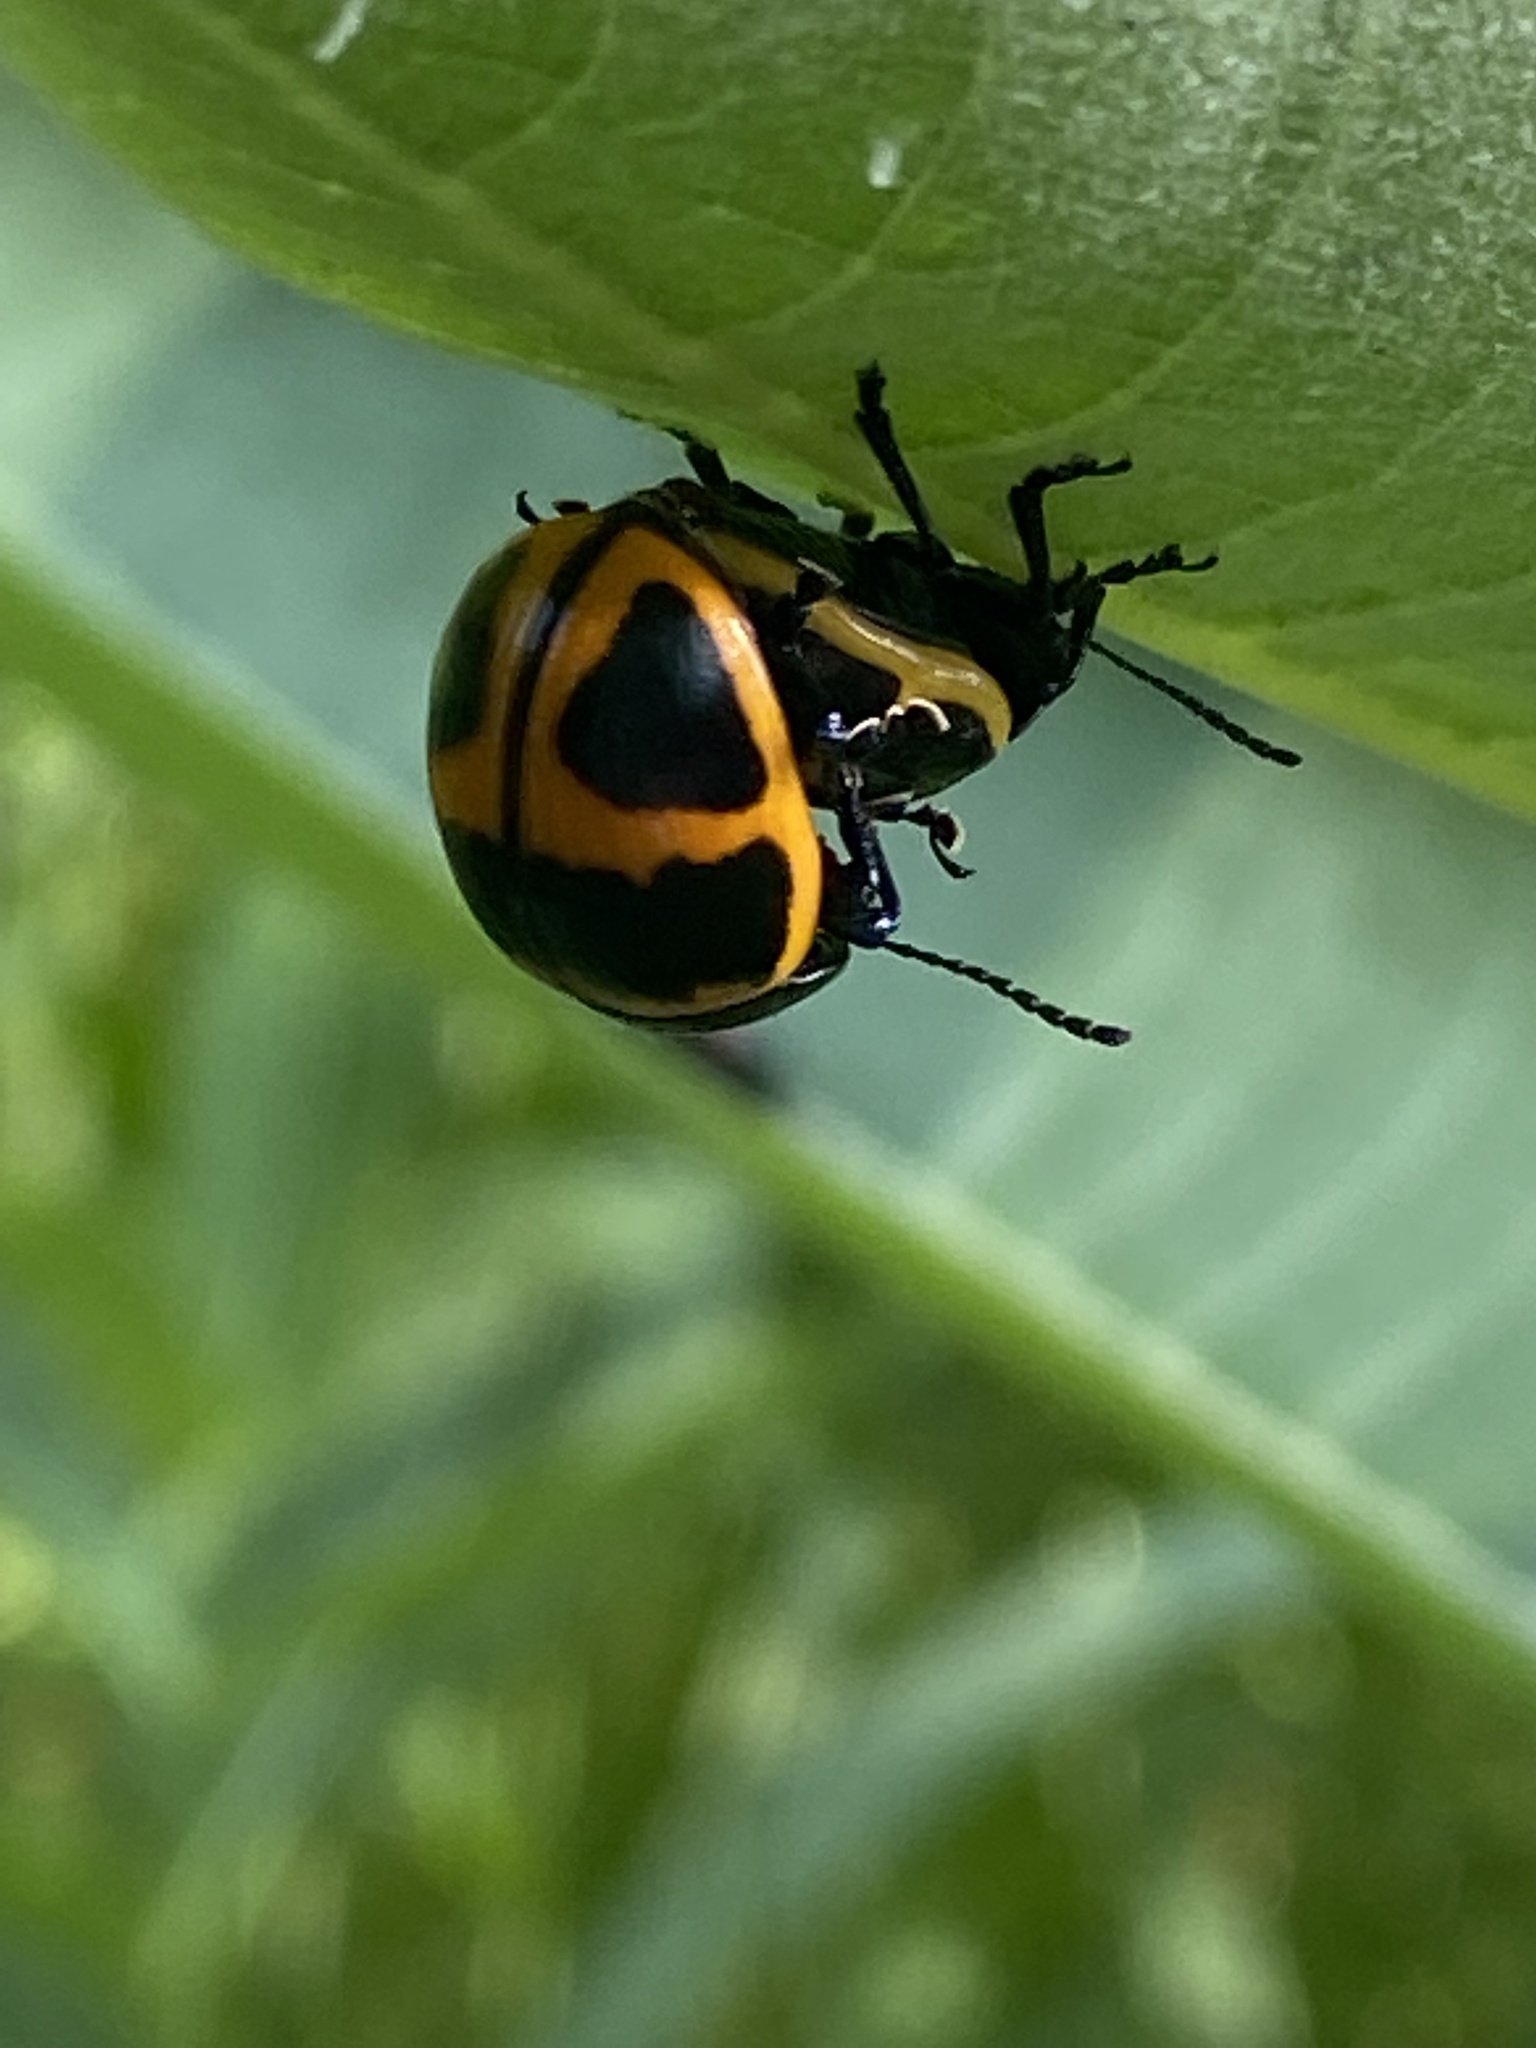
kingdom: Animalia
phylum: Arthropoda
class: Insecta
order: Coleoptera
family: Chrysomelidae
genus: Labidomera
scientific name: Labidomera clivicollis
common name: Swamp milkweed leaf beetle
